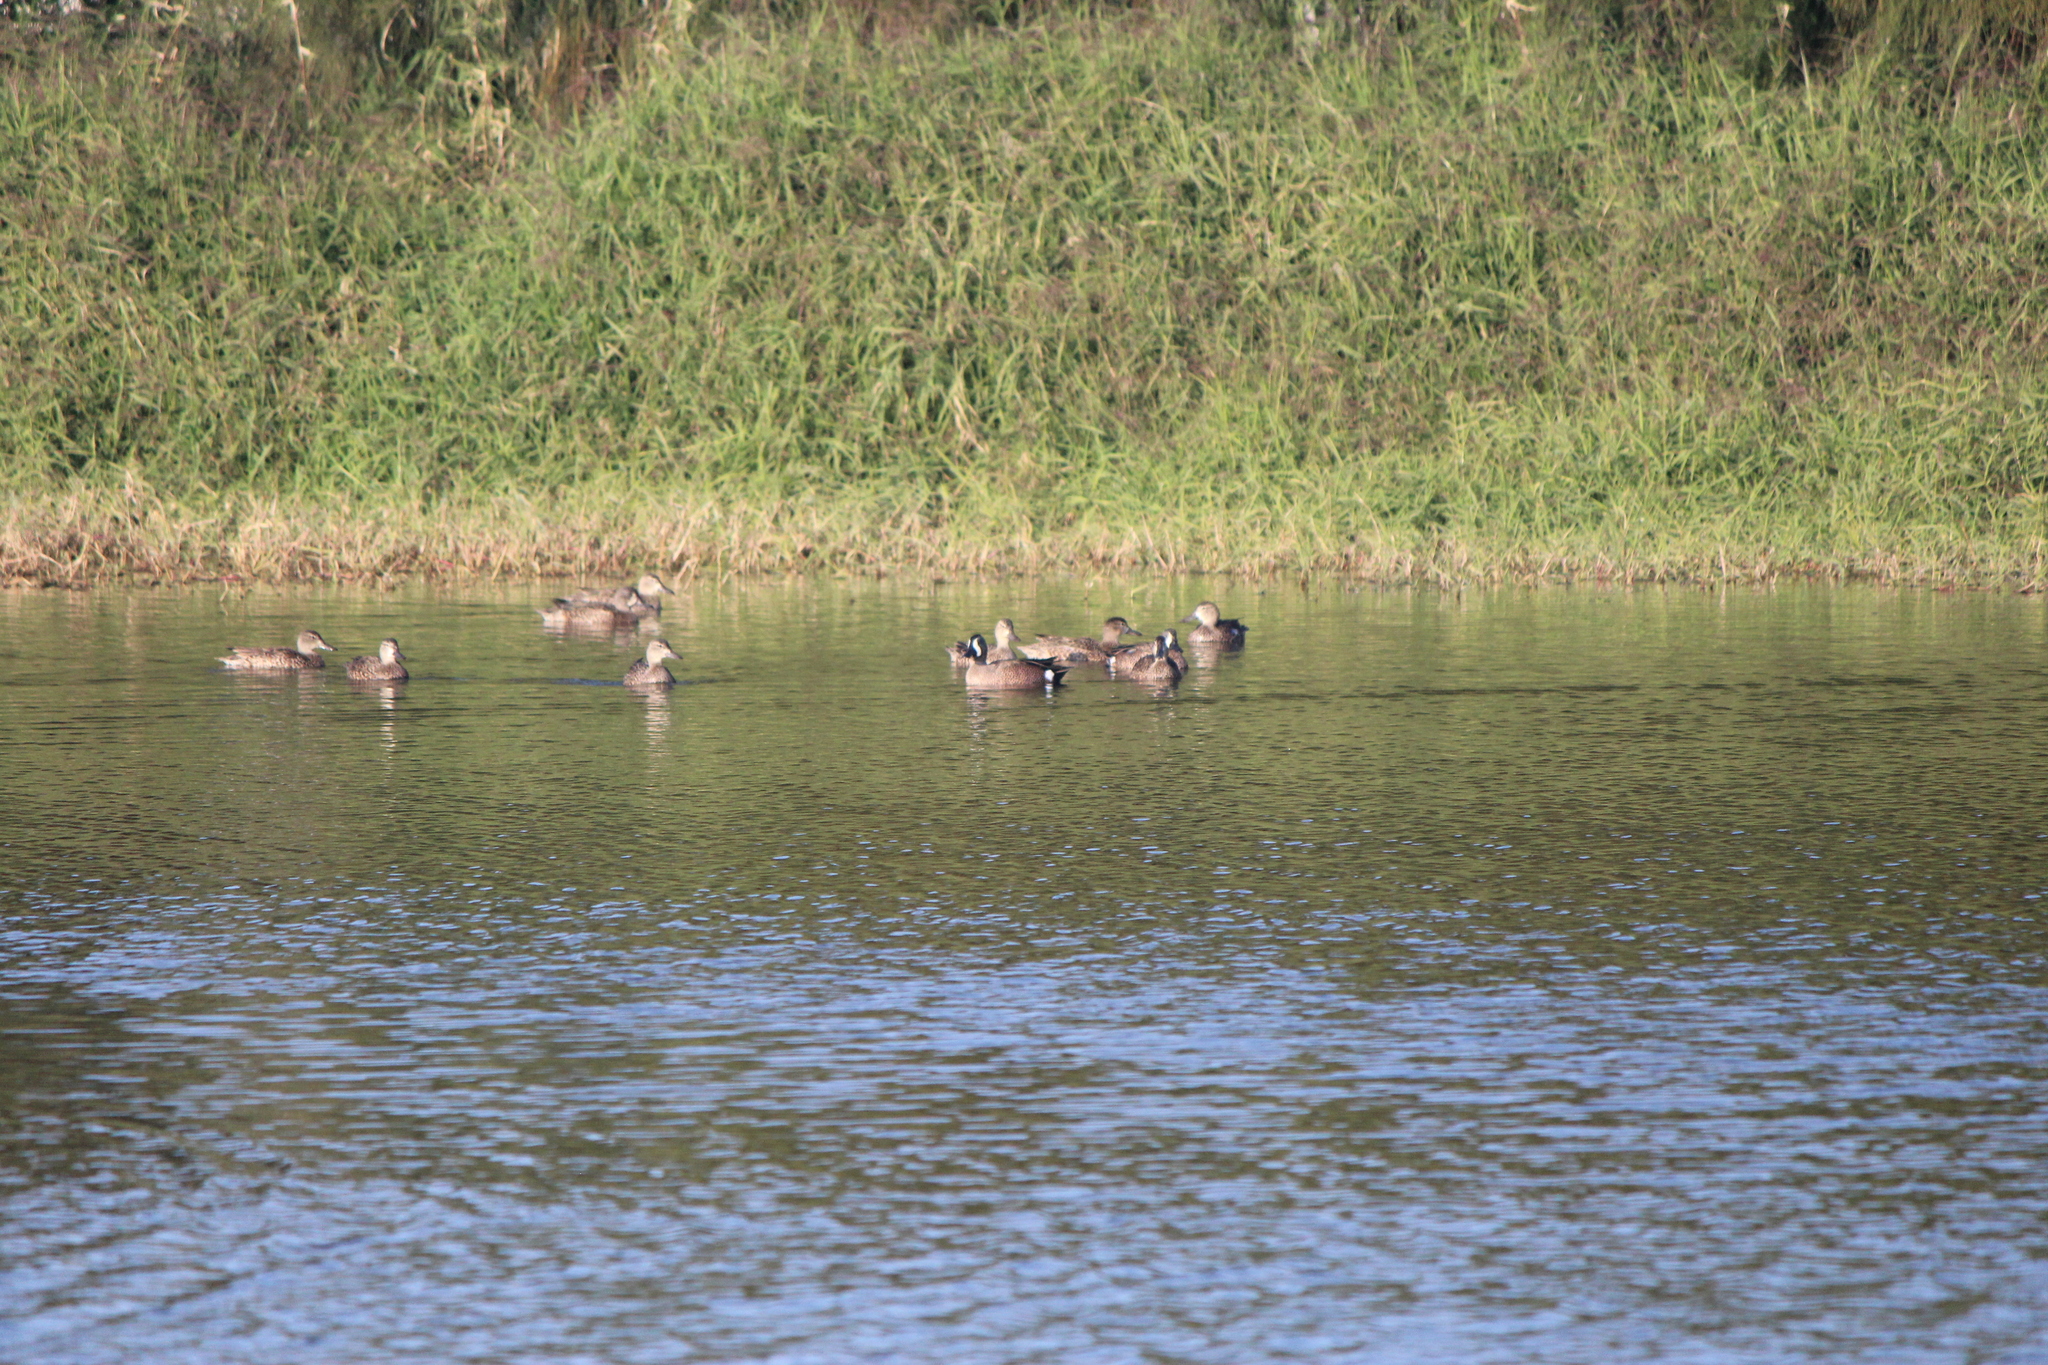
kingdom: Animalia
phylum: Chordata
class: Aves
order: Anseriformes
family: Anatidae
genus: Spatula
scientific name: Spatula discors
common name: Blue-winged teal
